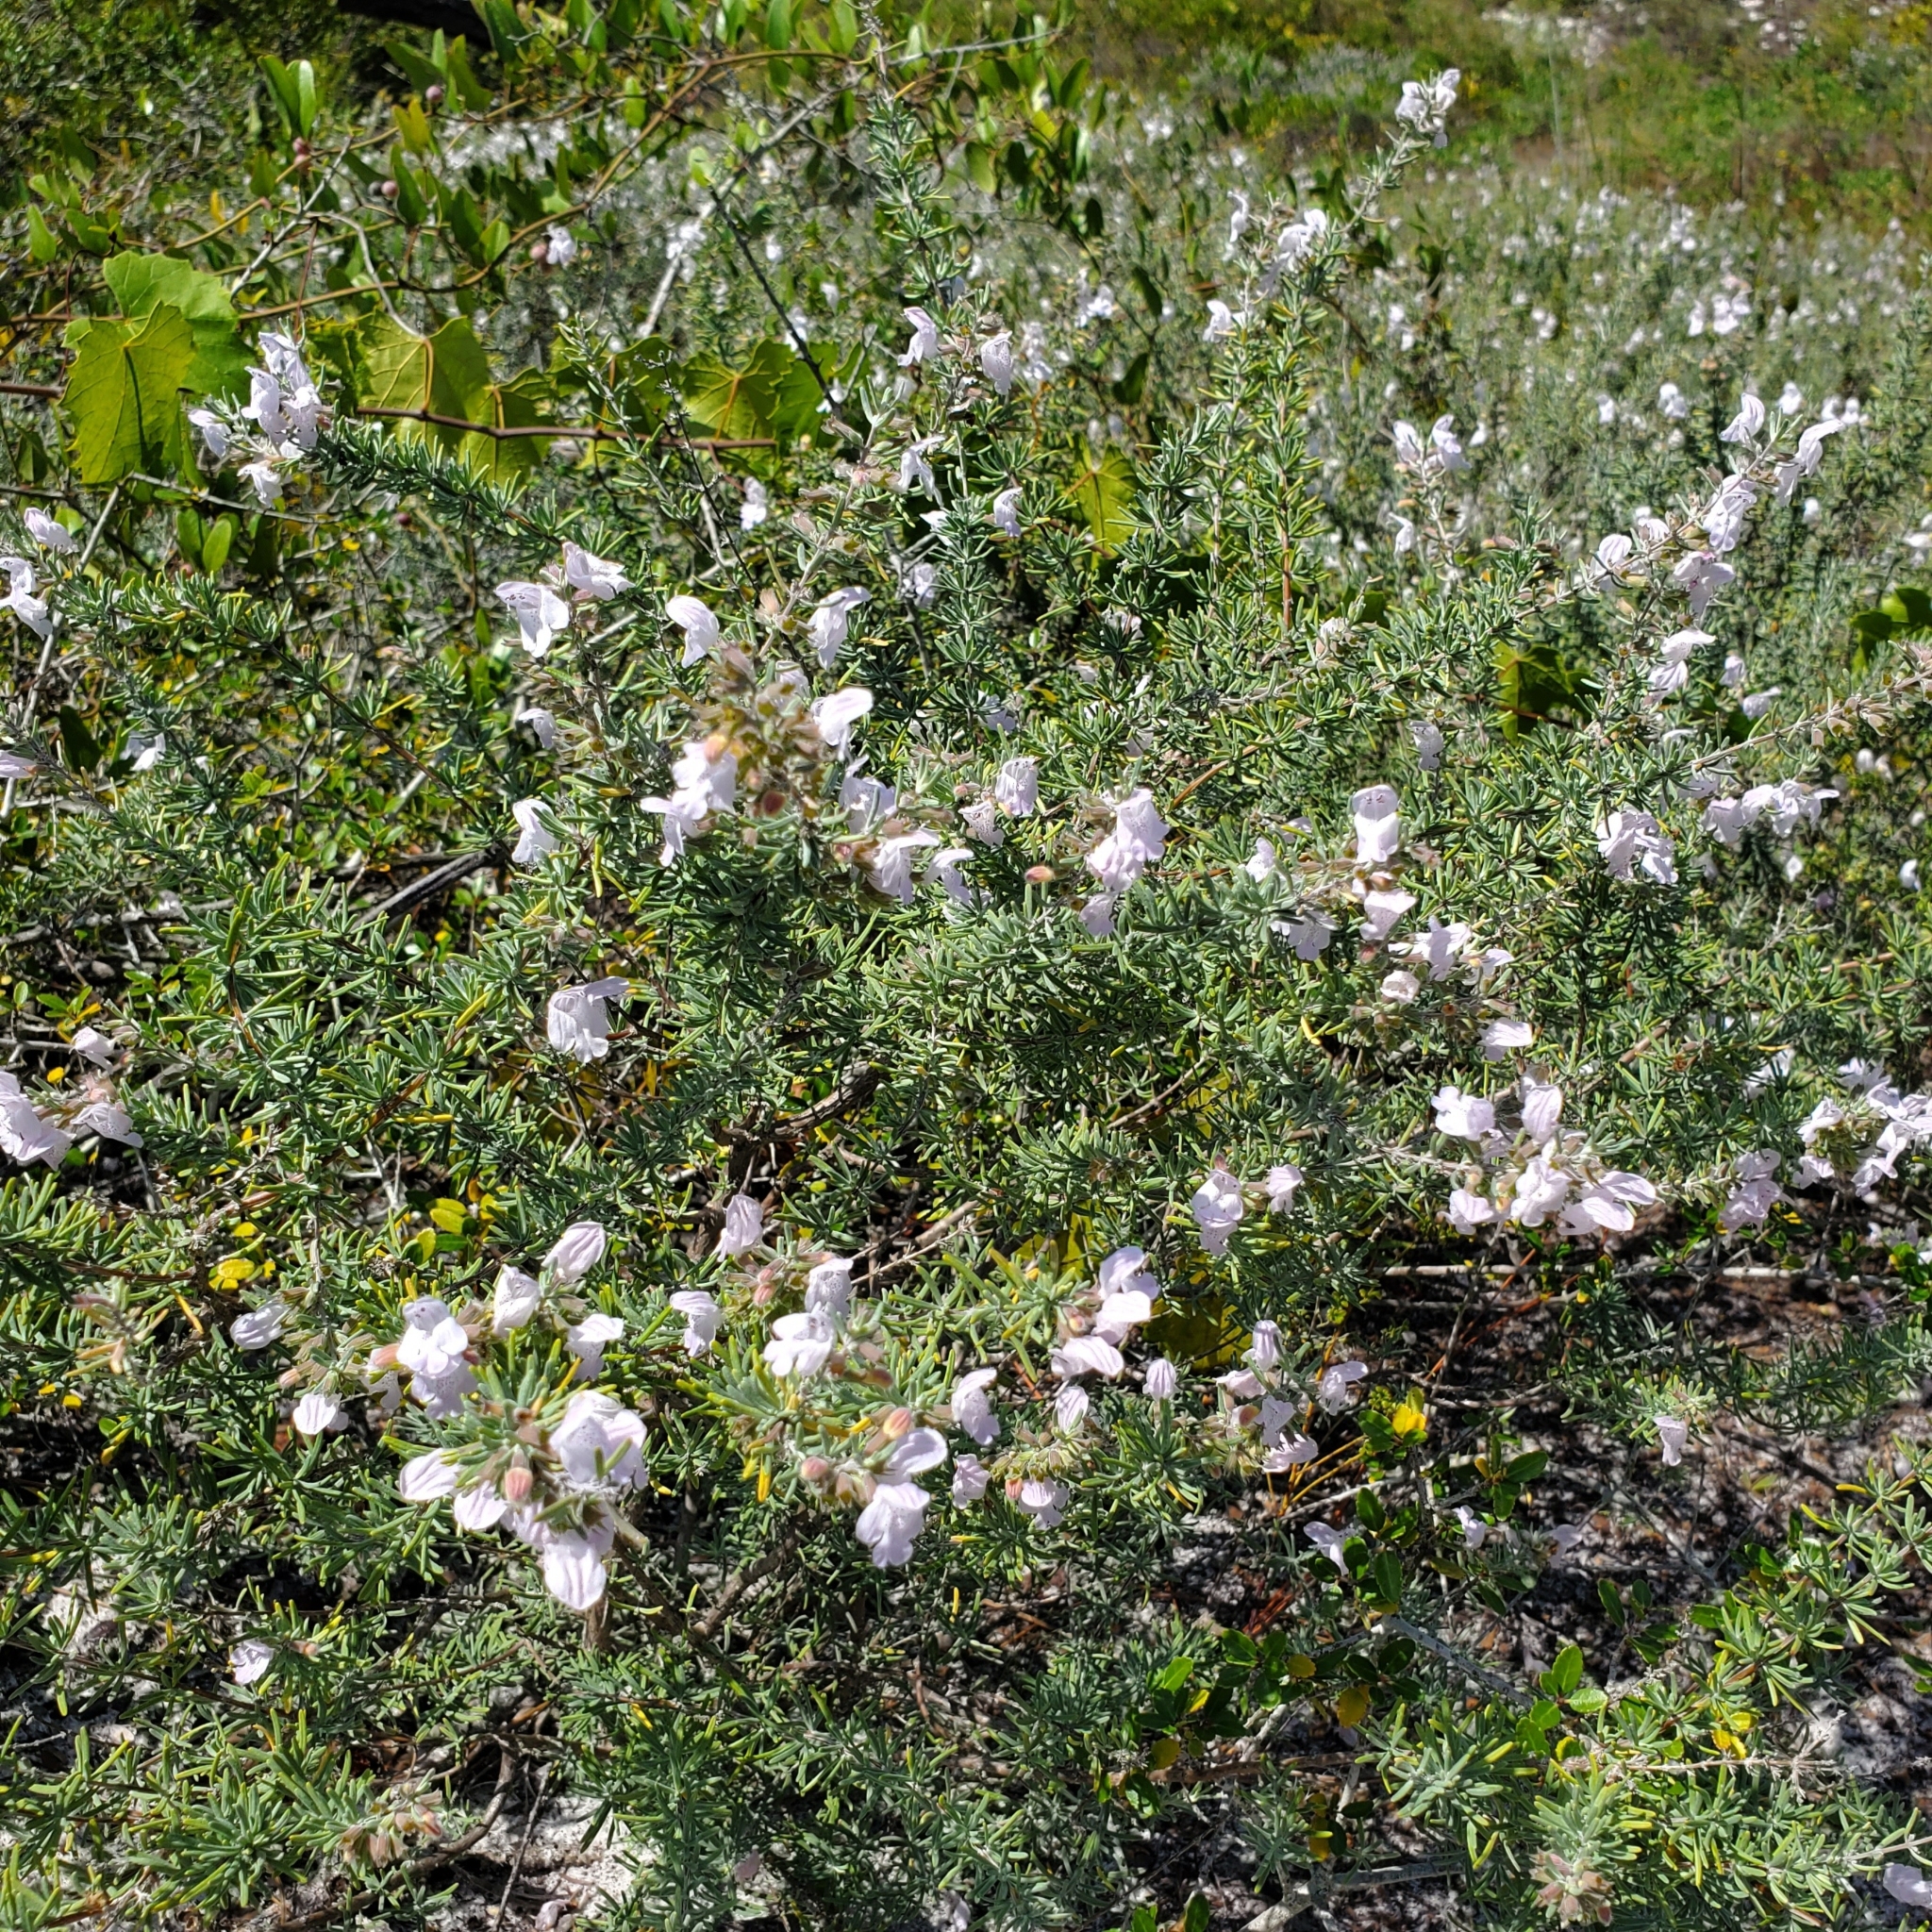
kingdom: Plantae
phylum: Tracheophyta
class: Magnoliopsida
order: Lamiales
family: Lamiaceae
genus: Conradina
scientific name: Conradina canescens
